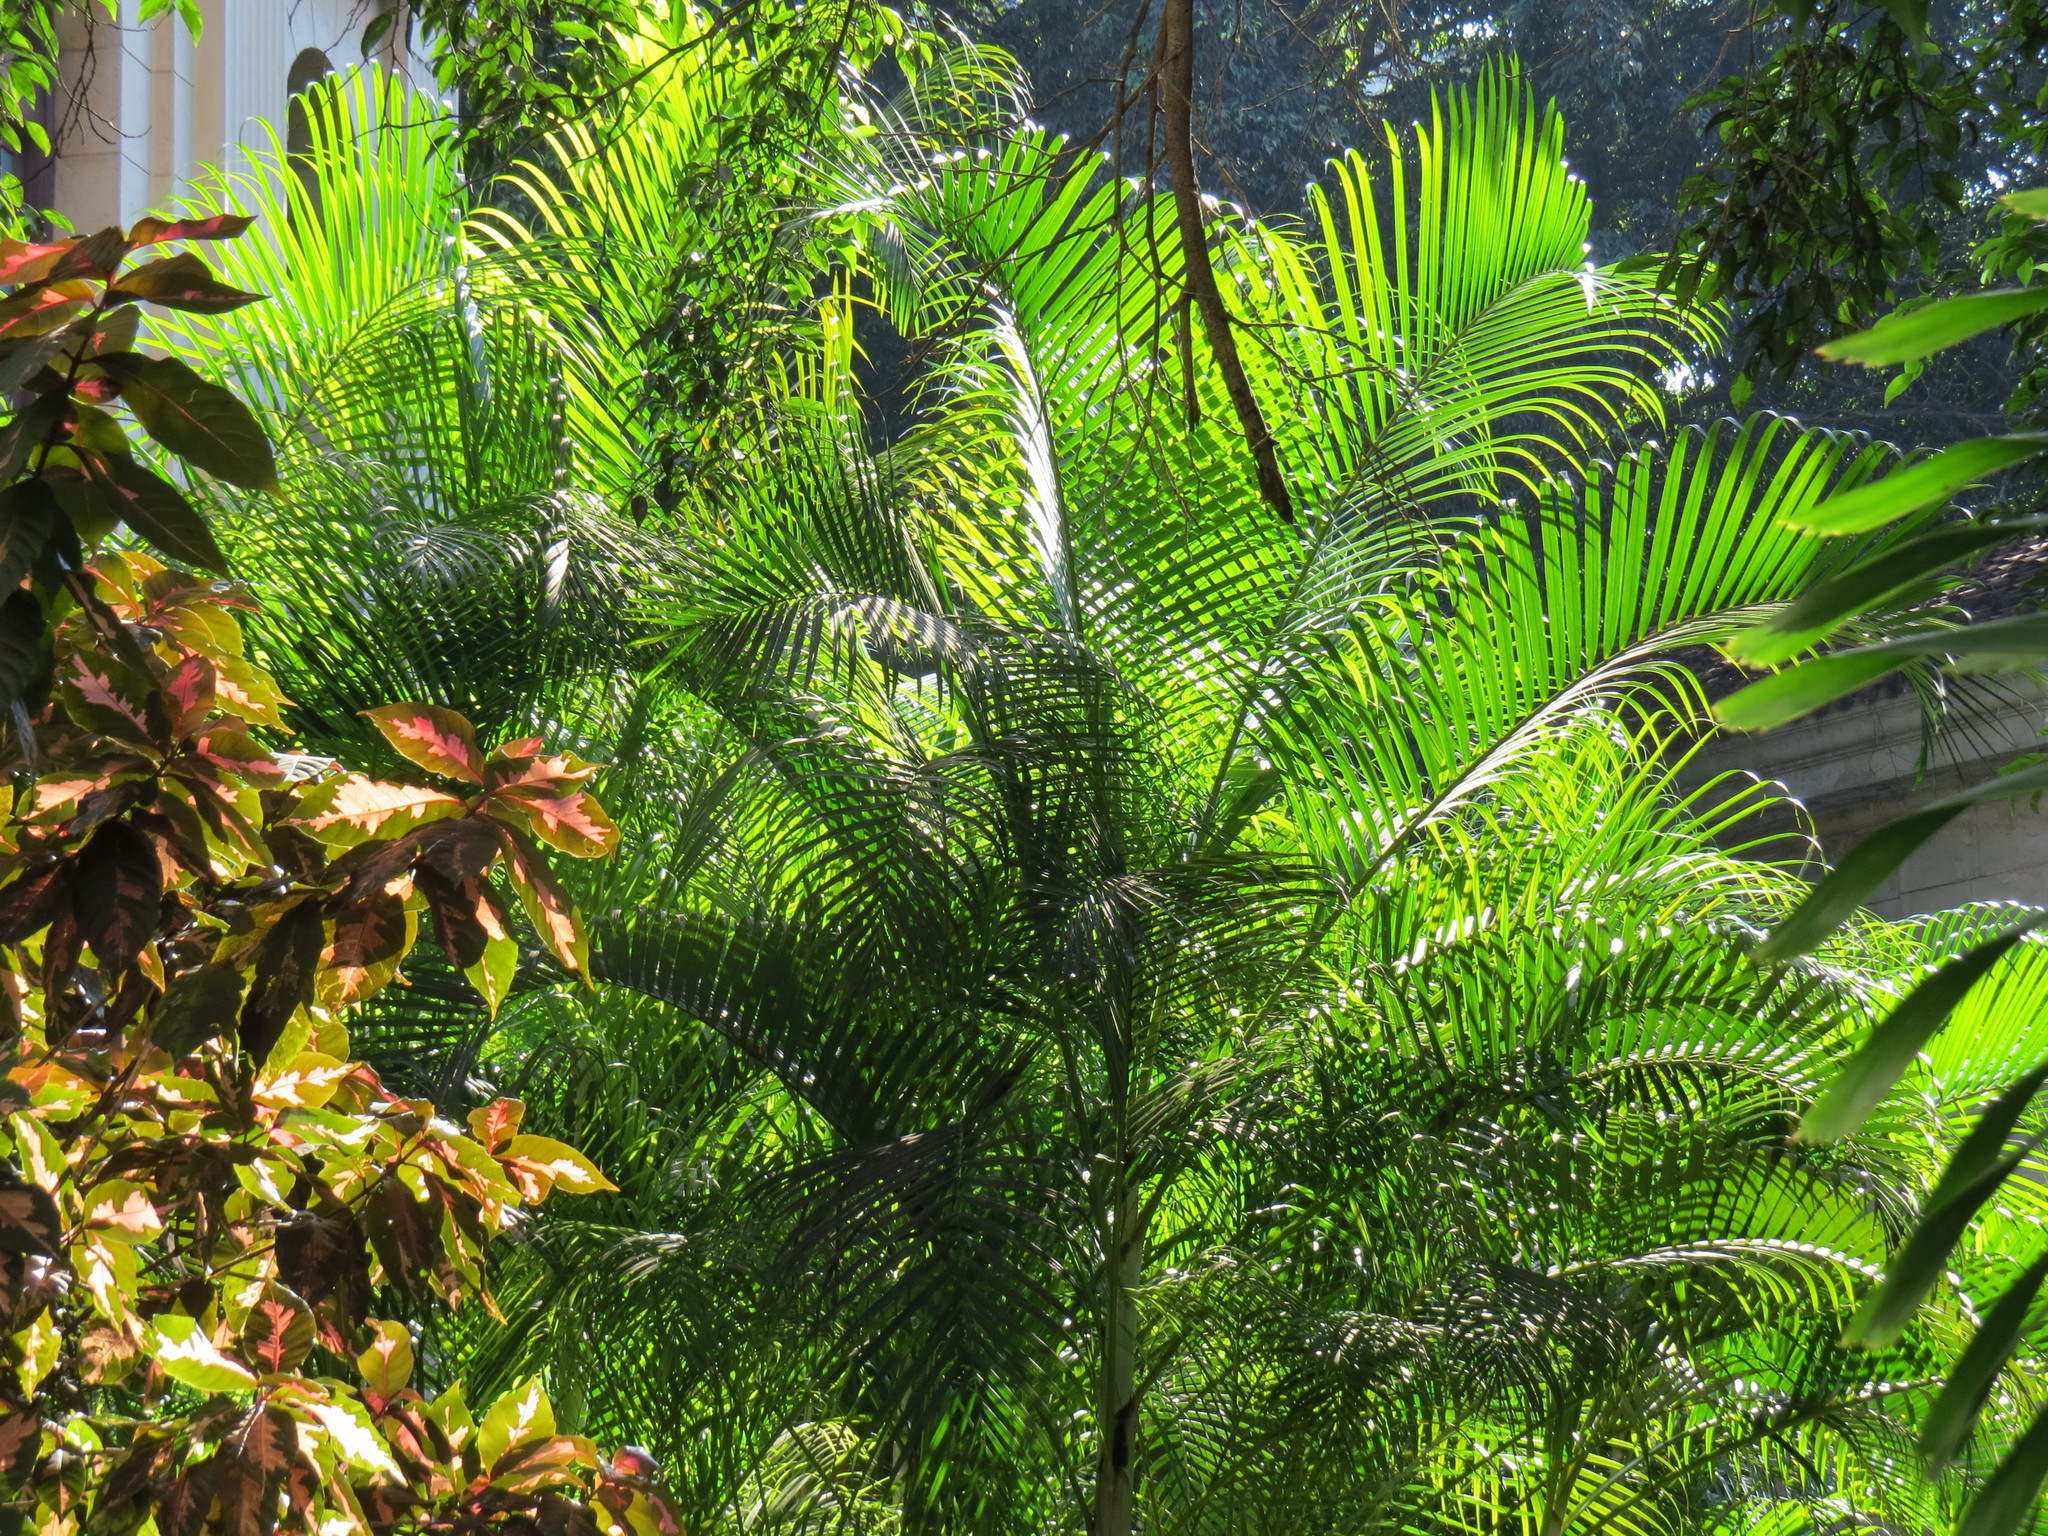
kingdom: Plantae
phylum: Tracheophyta
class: Liliopsida
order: Arecales
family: Arecaceae
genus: Dypsis
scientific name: Dypsis lutescens
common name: Yellow butterfly palm
